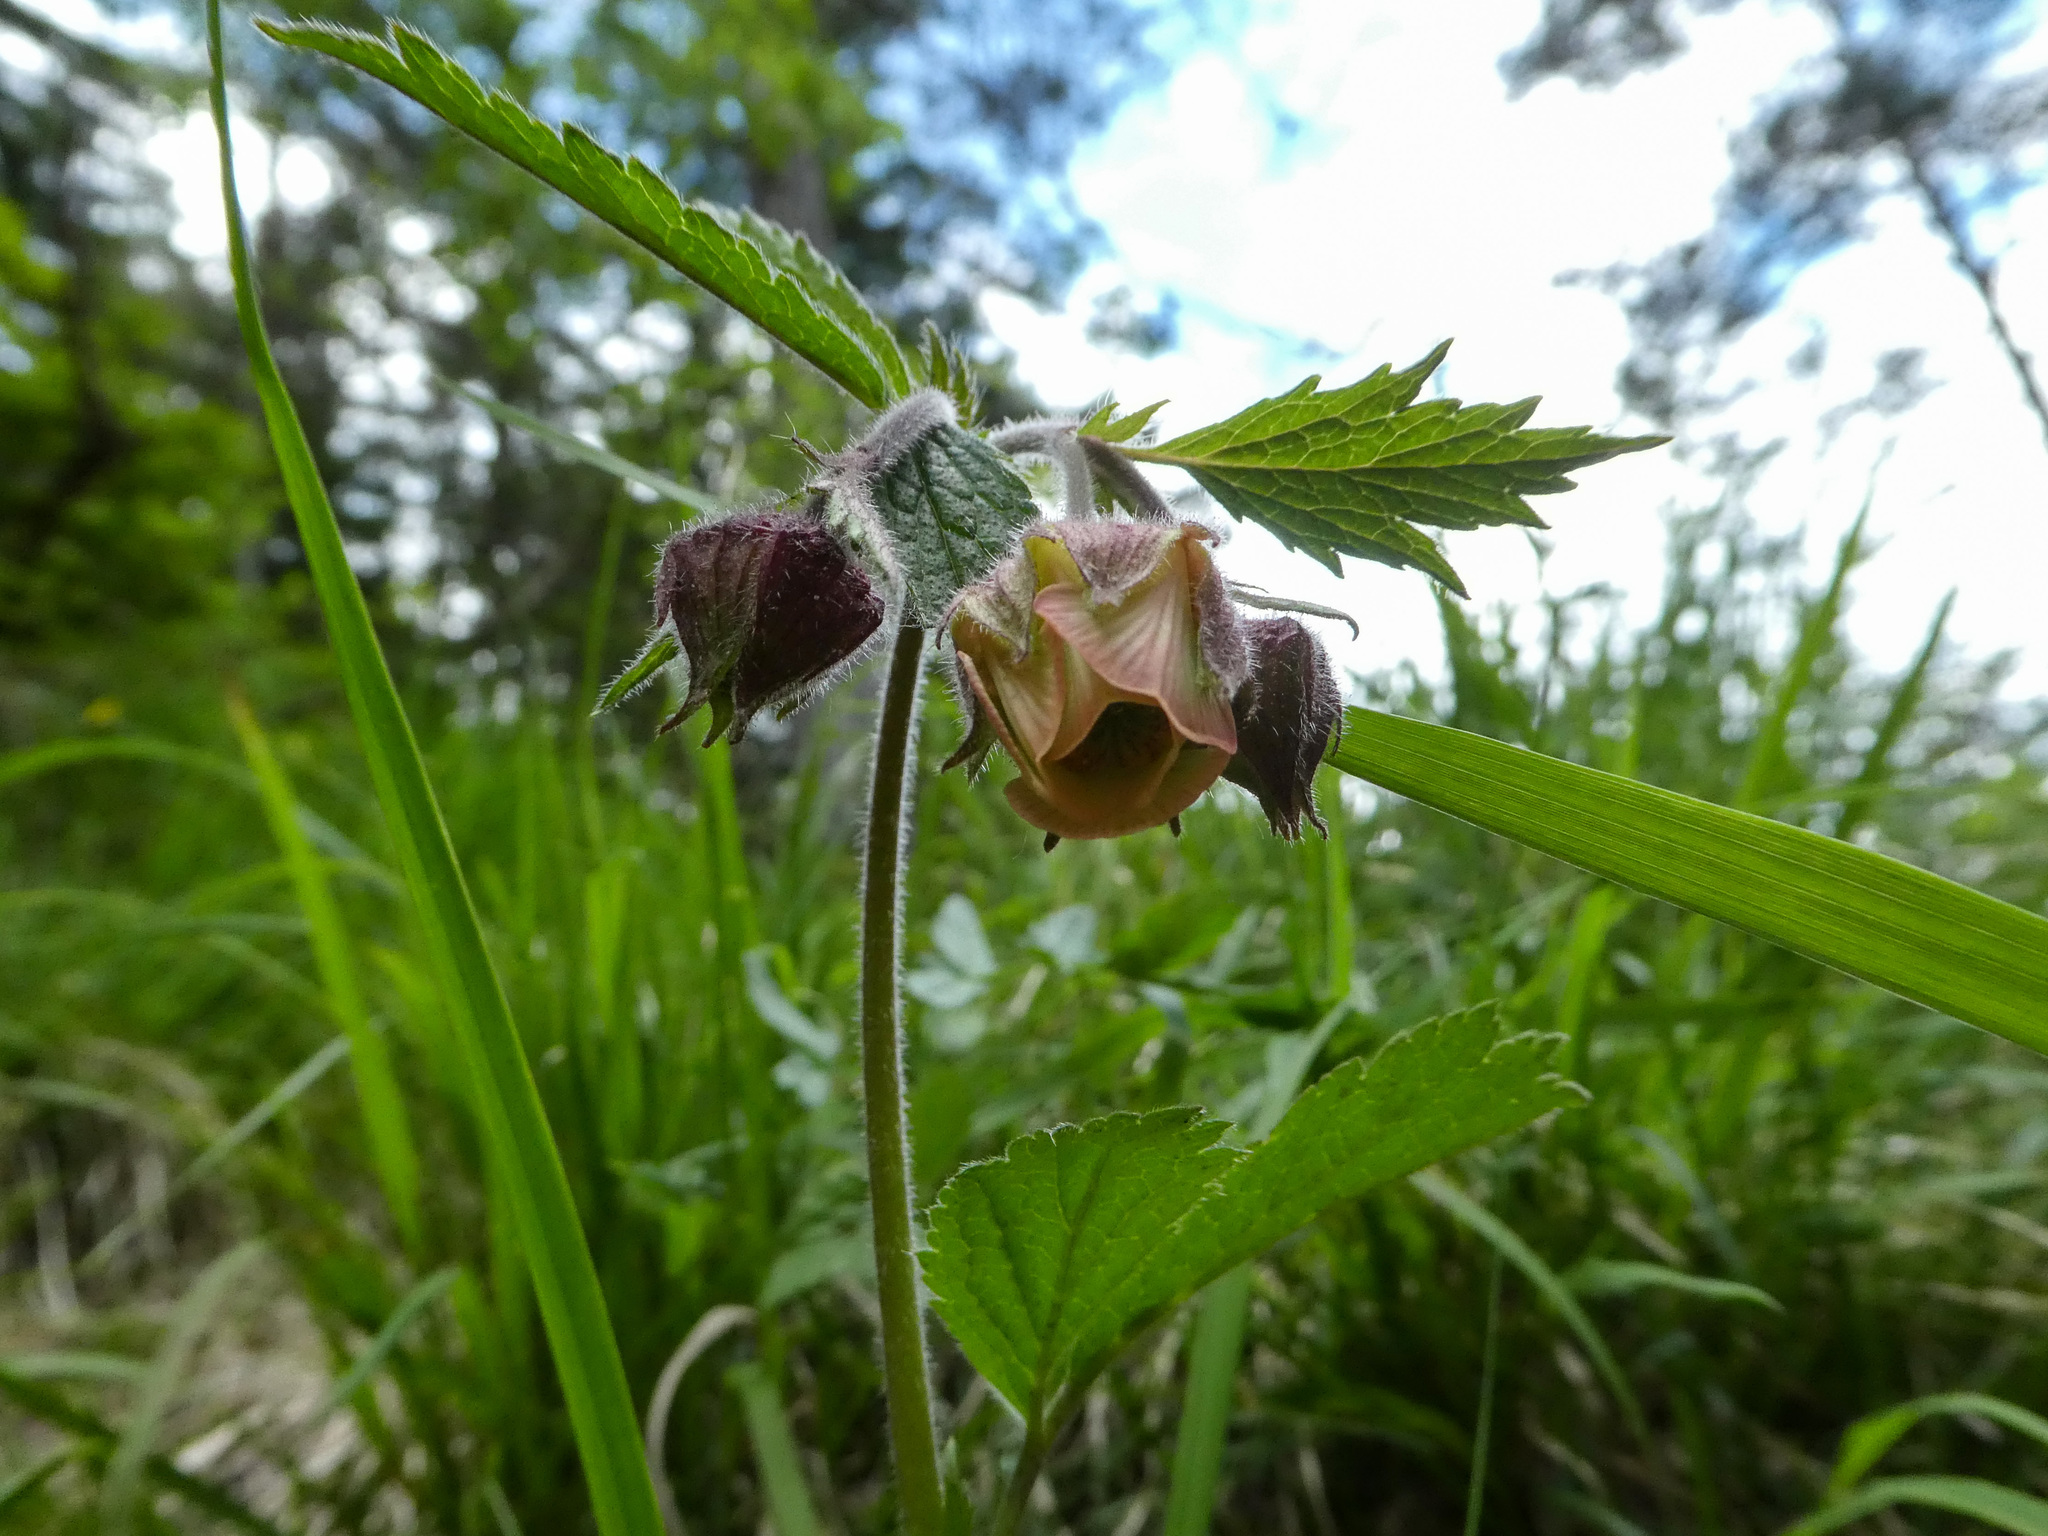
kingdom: Plantae
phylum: Tracheophyta
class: Magnoliopsida
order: Rosales
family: Rosaceae
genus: Geum
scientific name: Geum rivale
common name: Water avens
